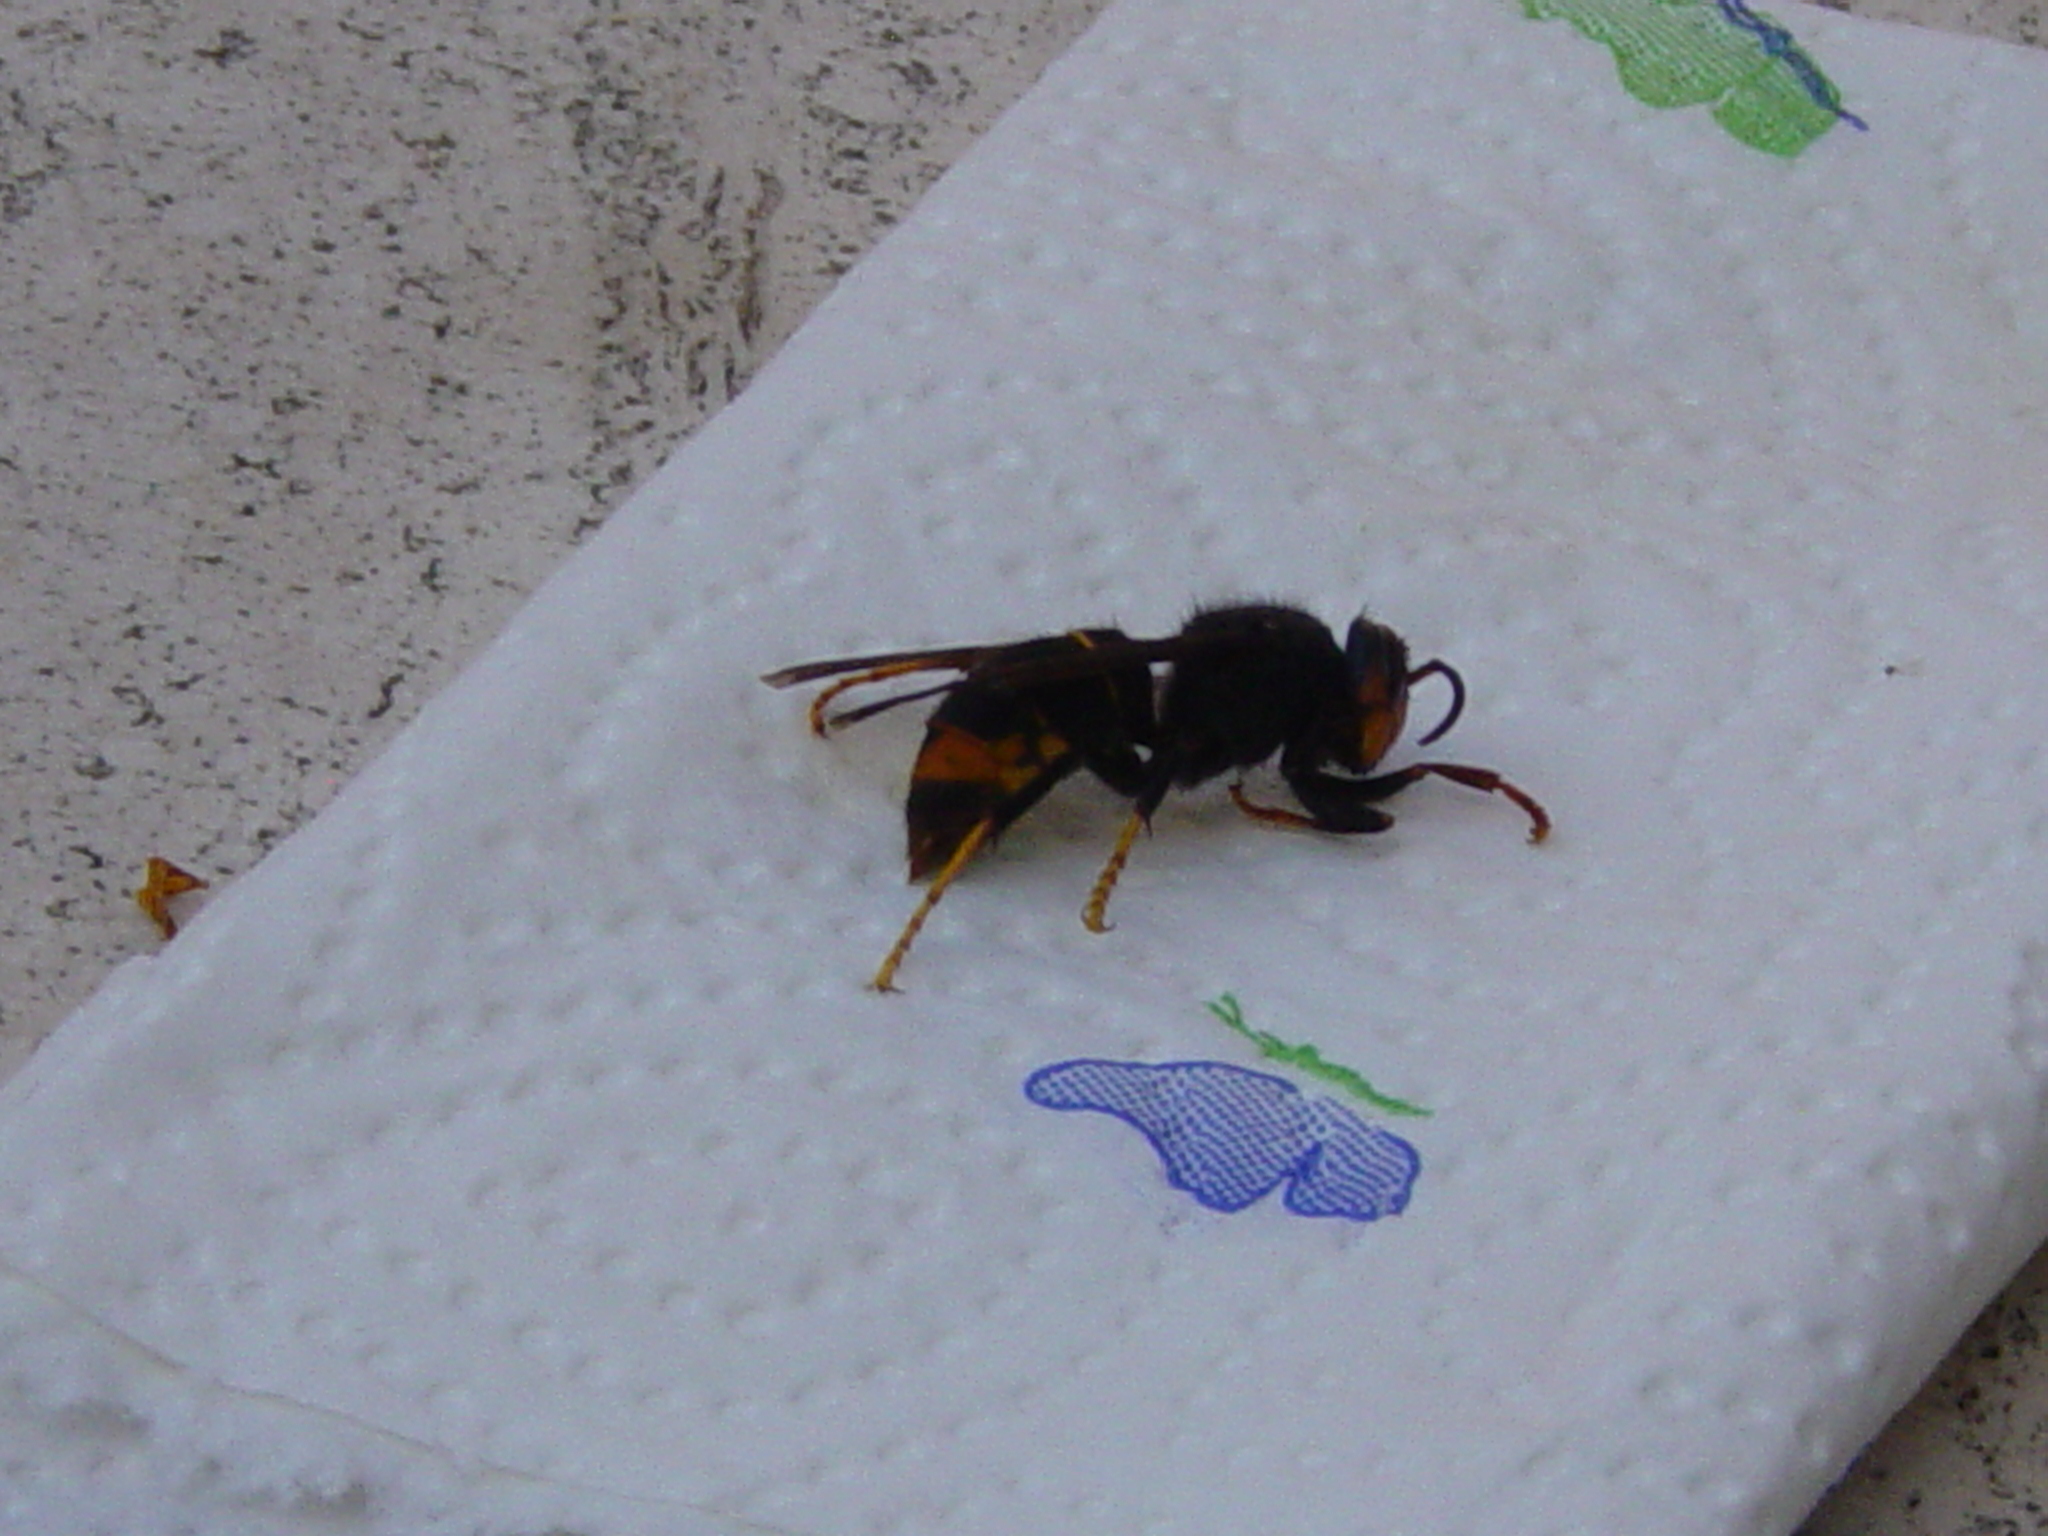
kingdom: Animalia
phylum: Arthropoda
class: Insecta
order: Hymenoptera
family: Vespidae
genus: Vespa
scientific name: Vespa velutina
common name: Asian hornet
